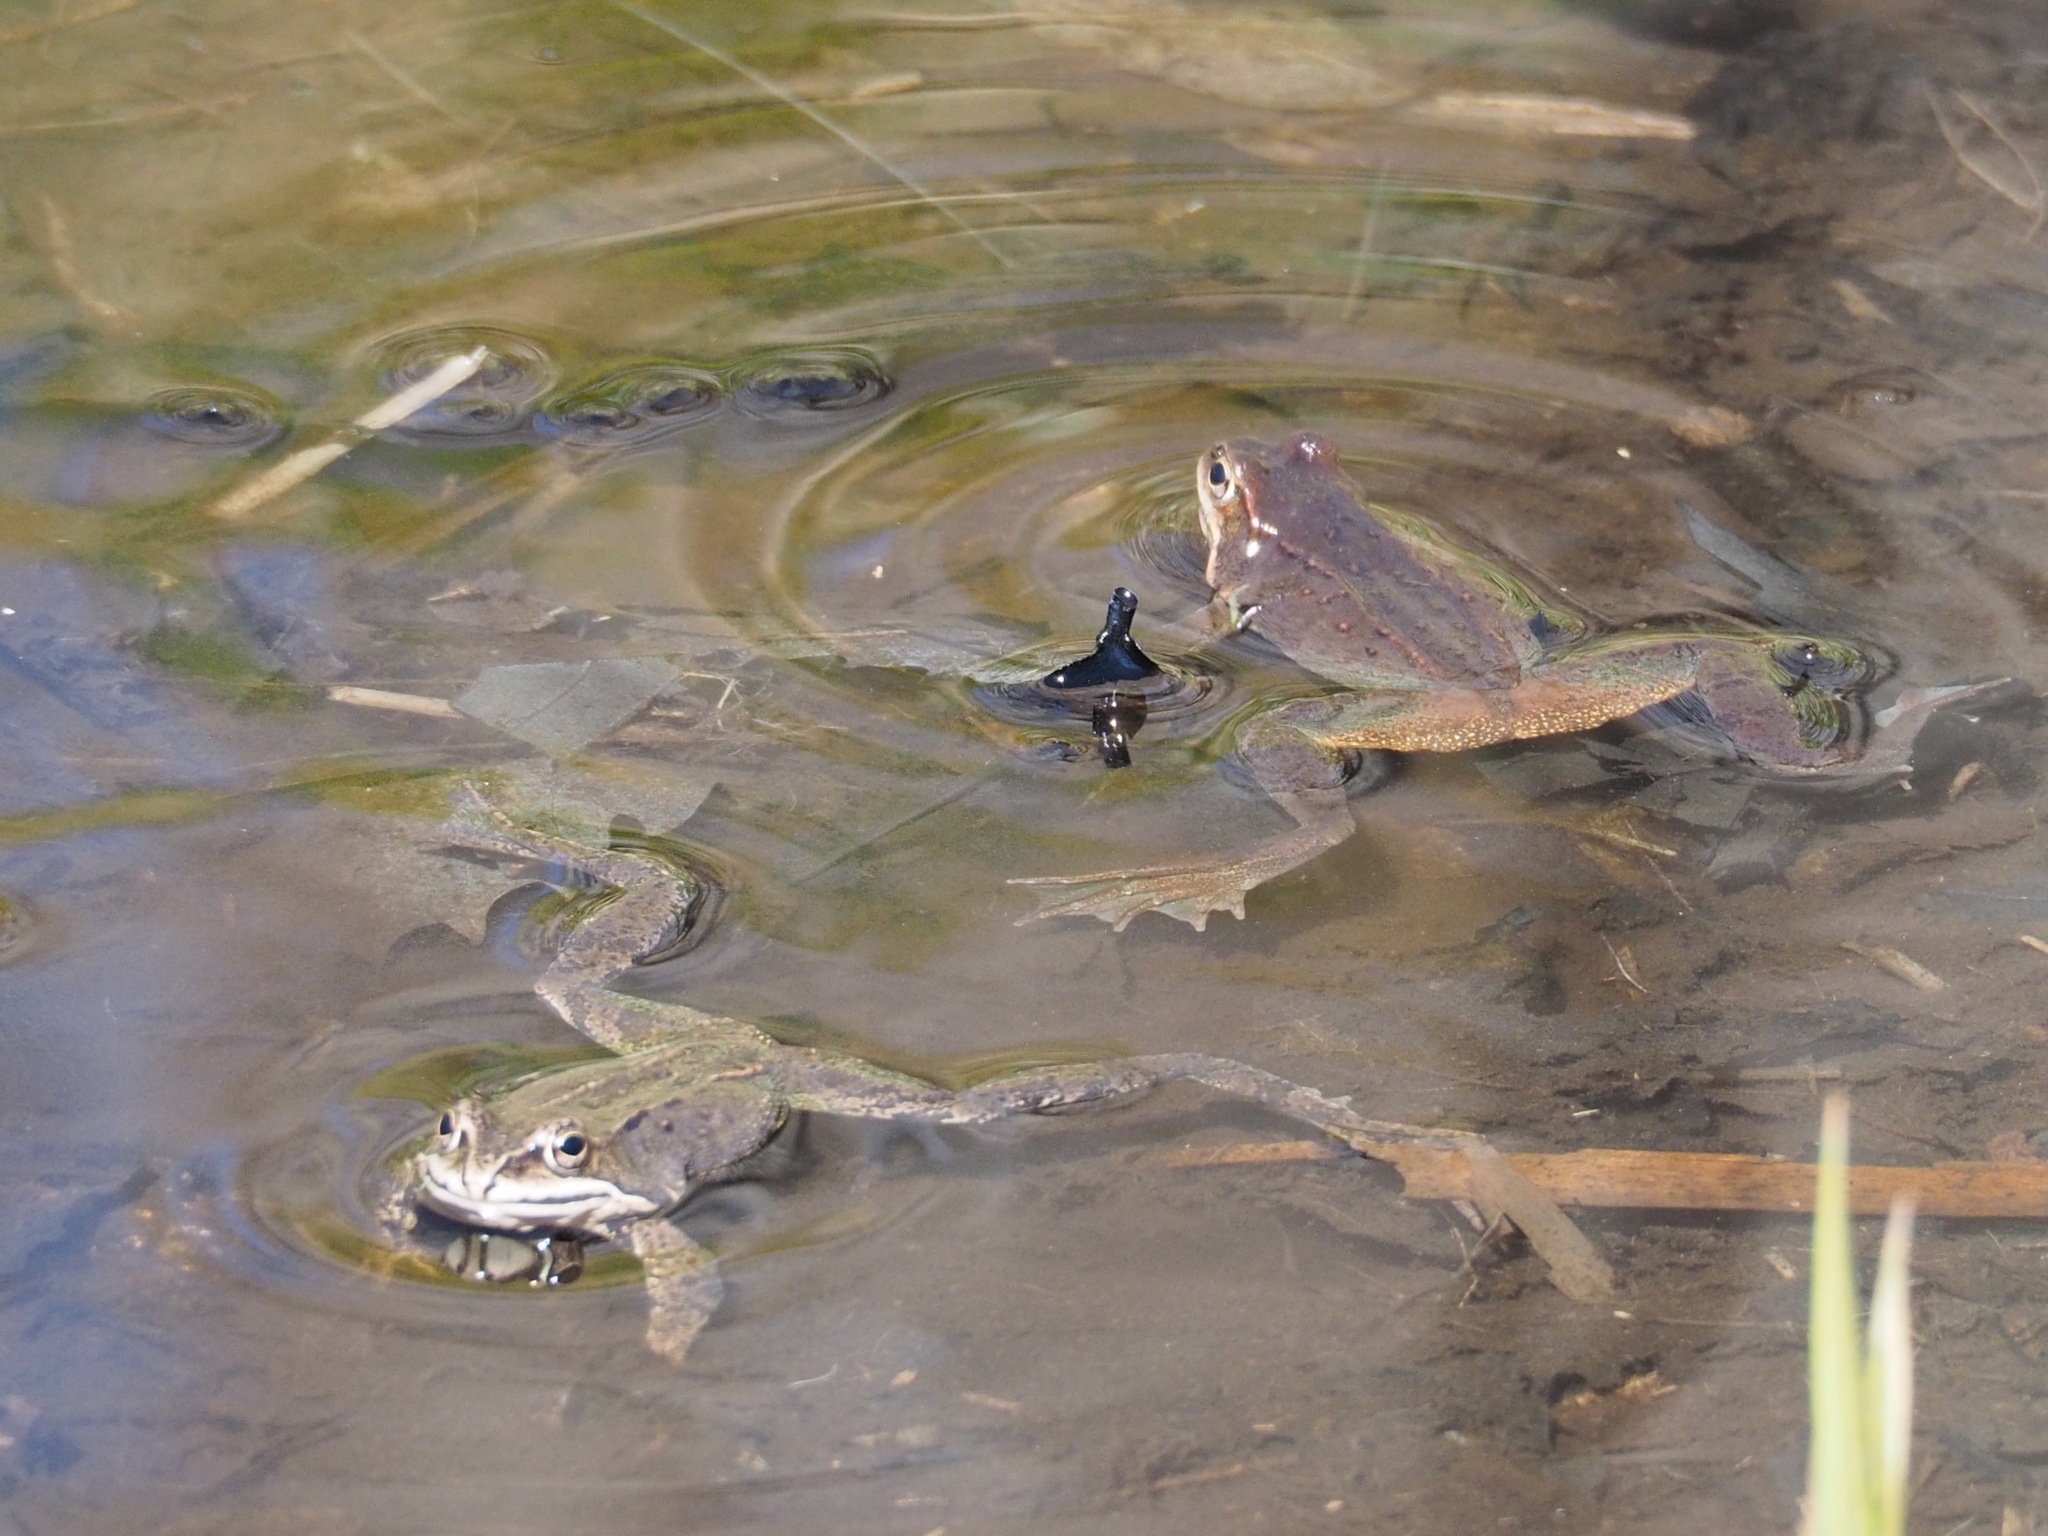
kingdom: Animalia
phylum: Chordata
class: Amphibia
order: Anura
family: Ranidae
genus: Rana
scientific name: Rana pirica
